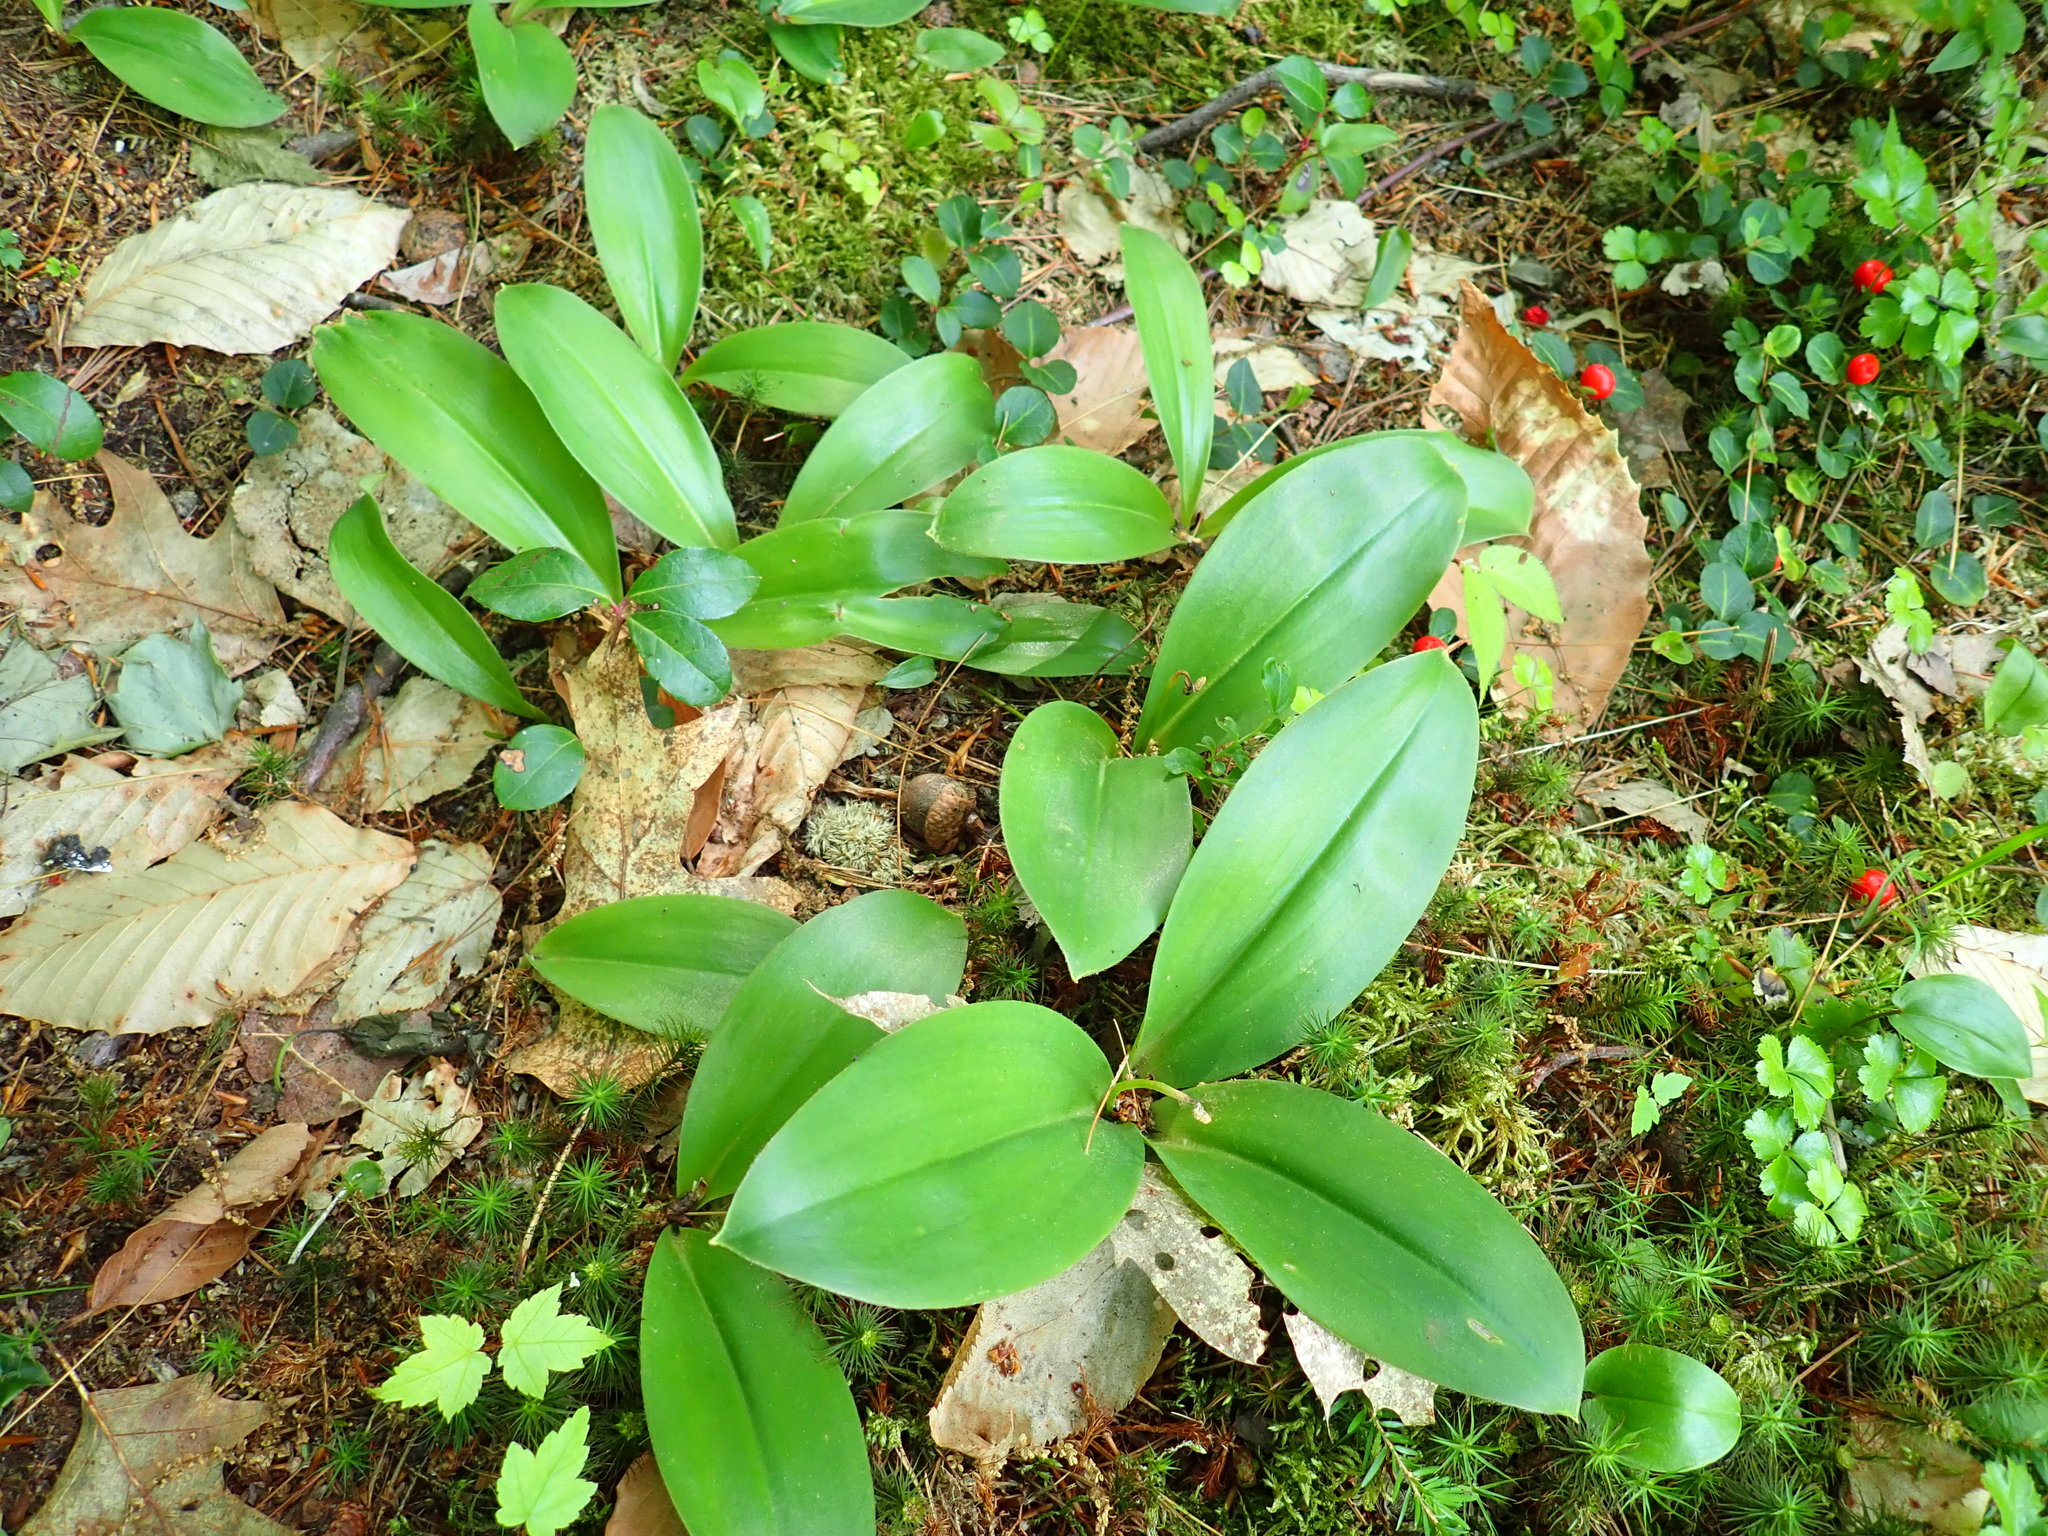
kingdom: Plantae
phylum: Tracheophyta
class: Liliopsida
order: Liliales
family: Liliaceae
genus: Clintonia
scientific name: Clintonia borealis
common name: Yellow clintonia
